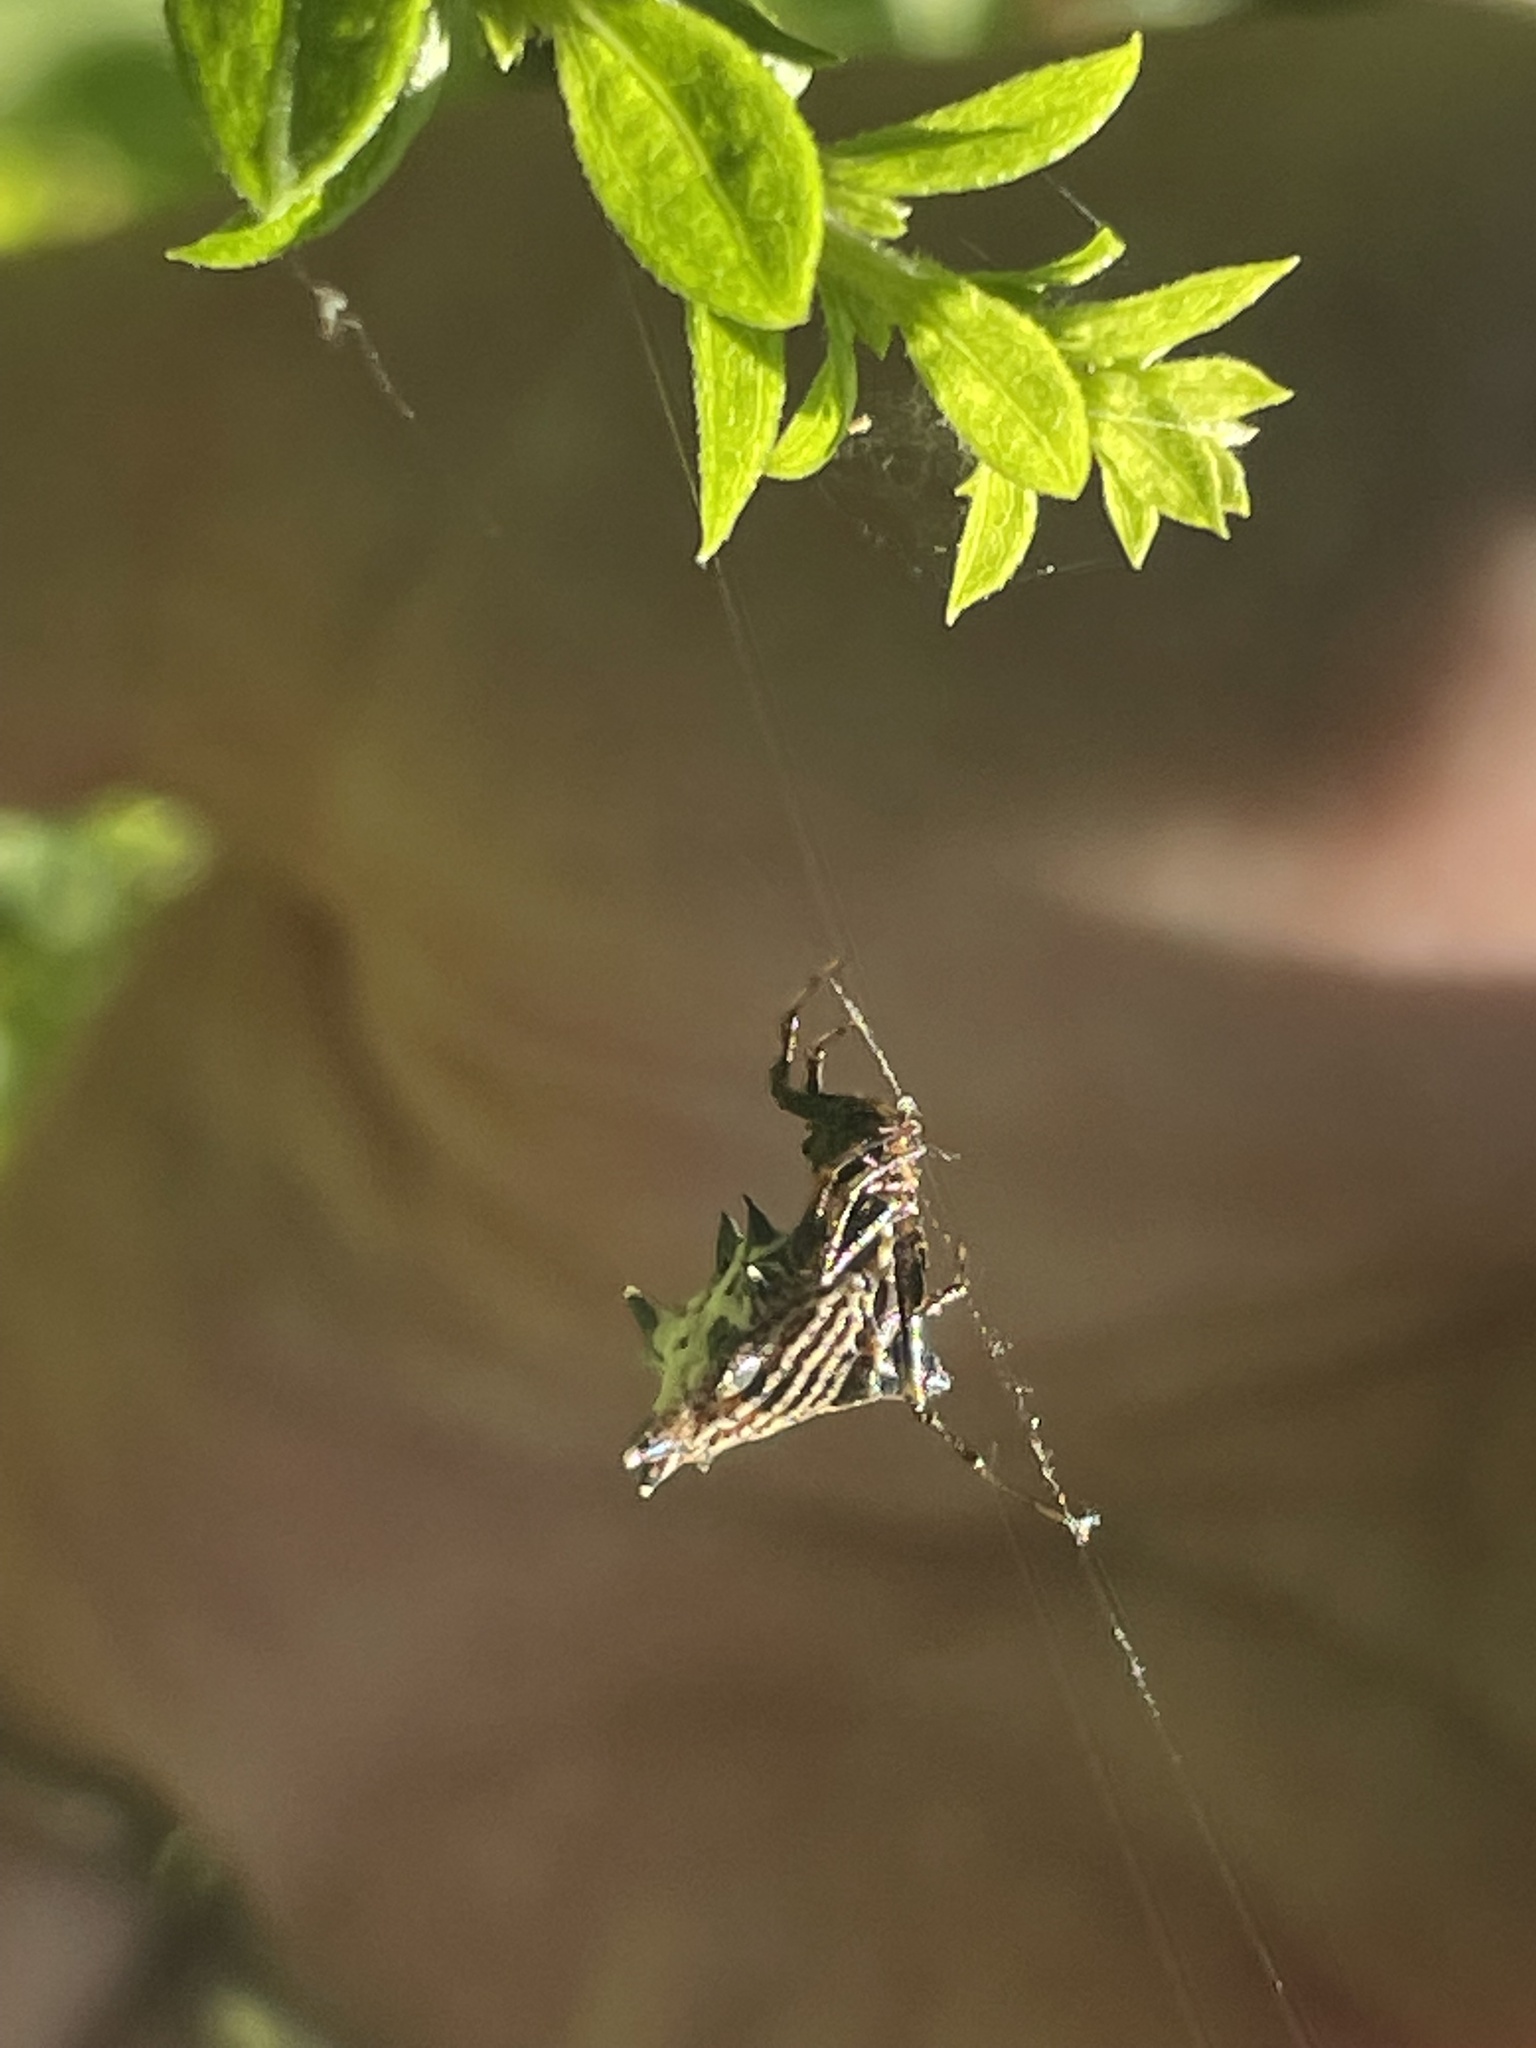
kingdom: Animalia
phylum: Arthropoda
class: Arachnida
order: Araneae
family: Araneidae
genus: Micrathena
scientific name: Micrathena gracilis
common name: Orb weavers
